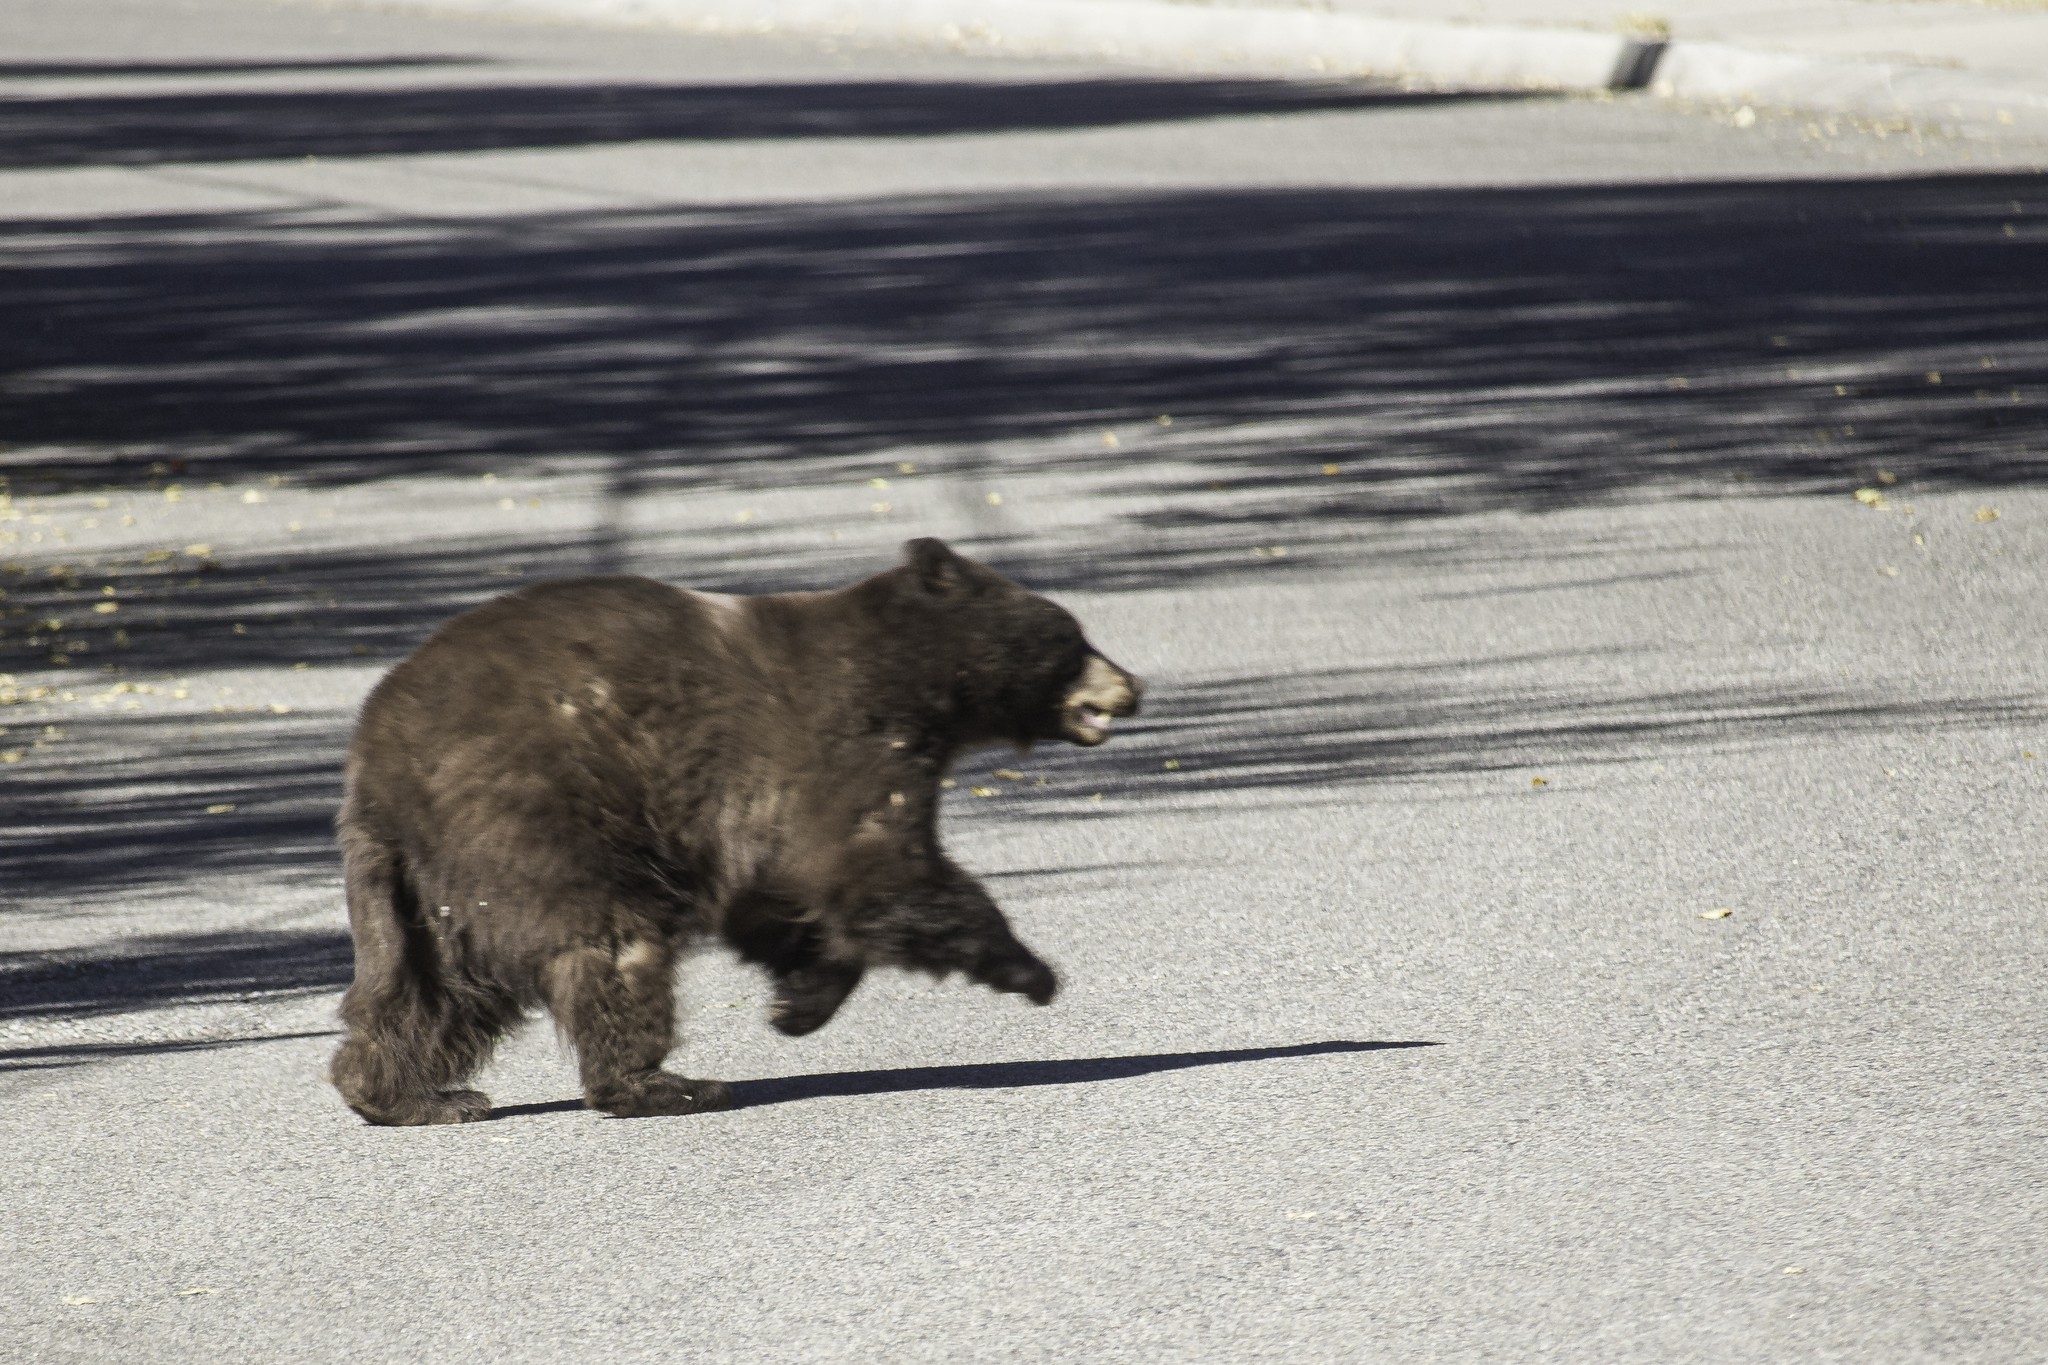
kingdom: Animalia
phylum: Chordata
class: Mammalia
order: Carnivora
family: Ursidae
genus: Ursus
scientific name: Ursus americanus
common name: American black bear
